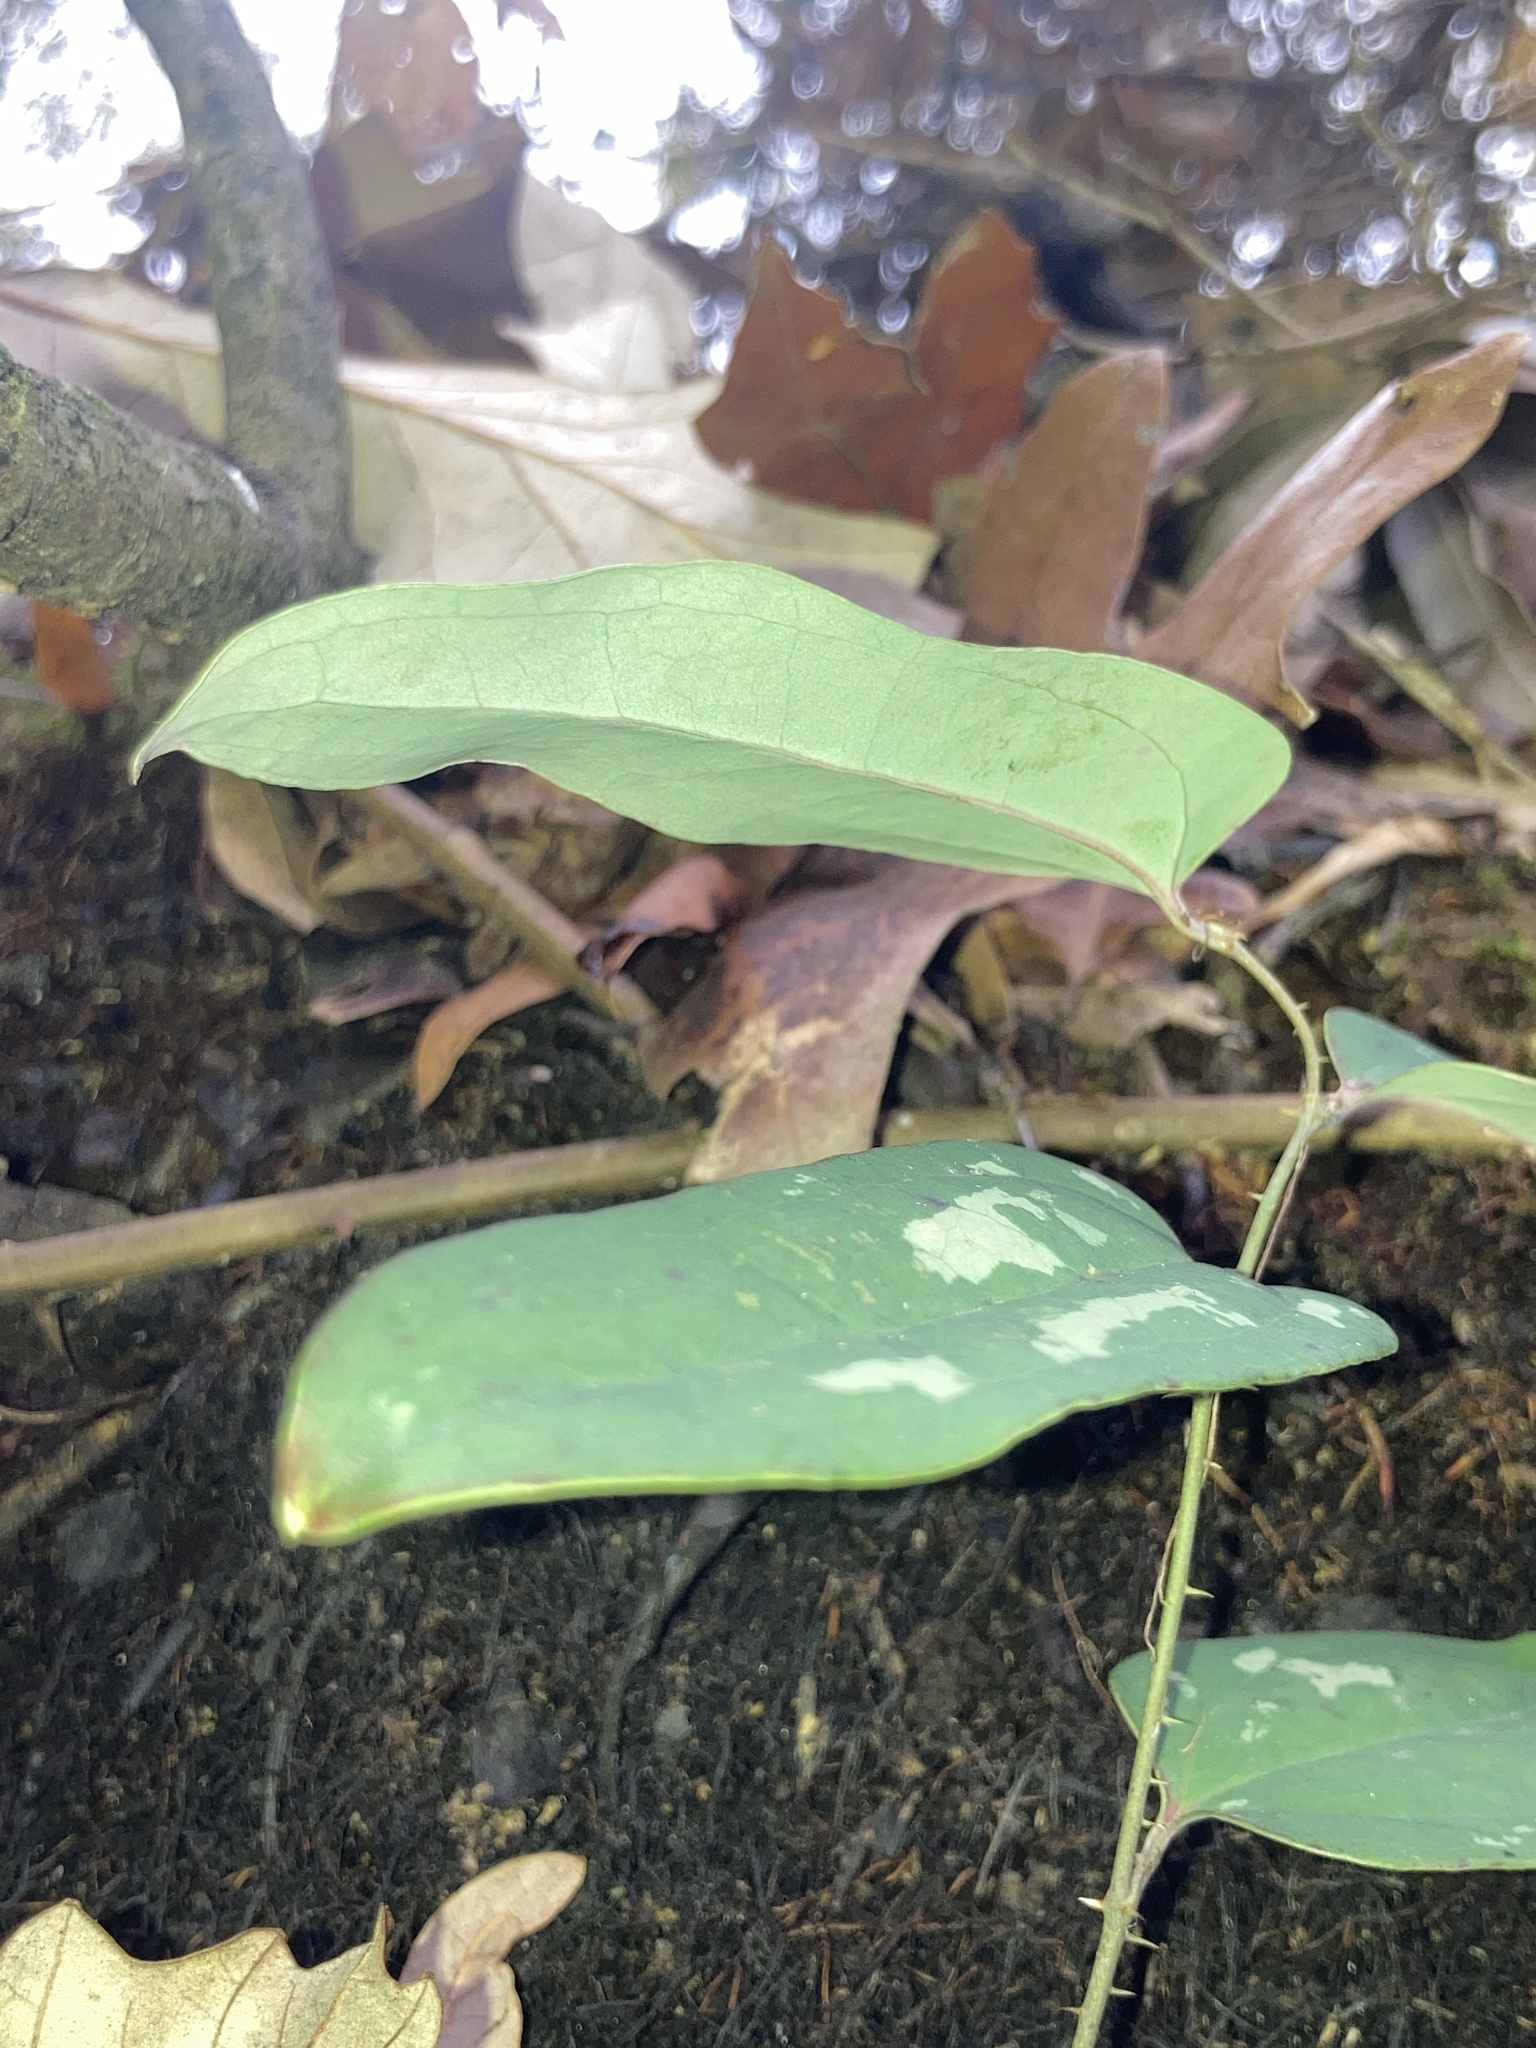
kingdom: Plantae
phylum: Tracheophyta
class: Liliopsida
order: Liliales
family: Smilacaceae
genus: Smilax
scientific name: Smilax glauca
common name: Cat greenbrier
